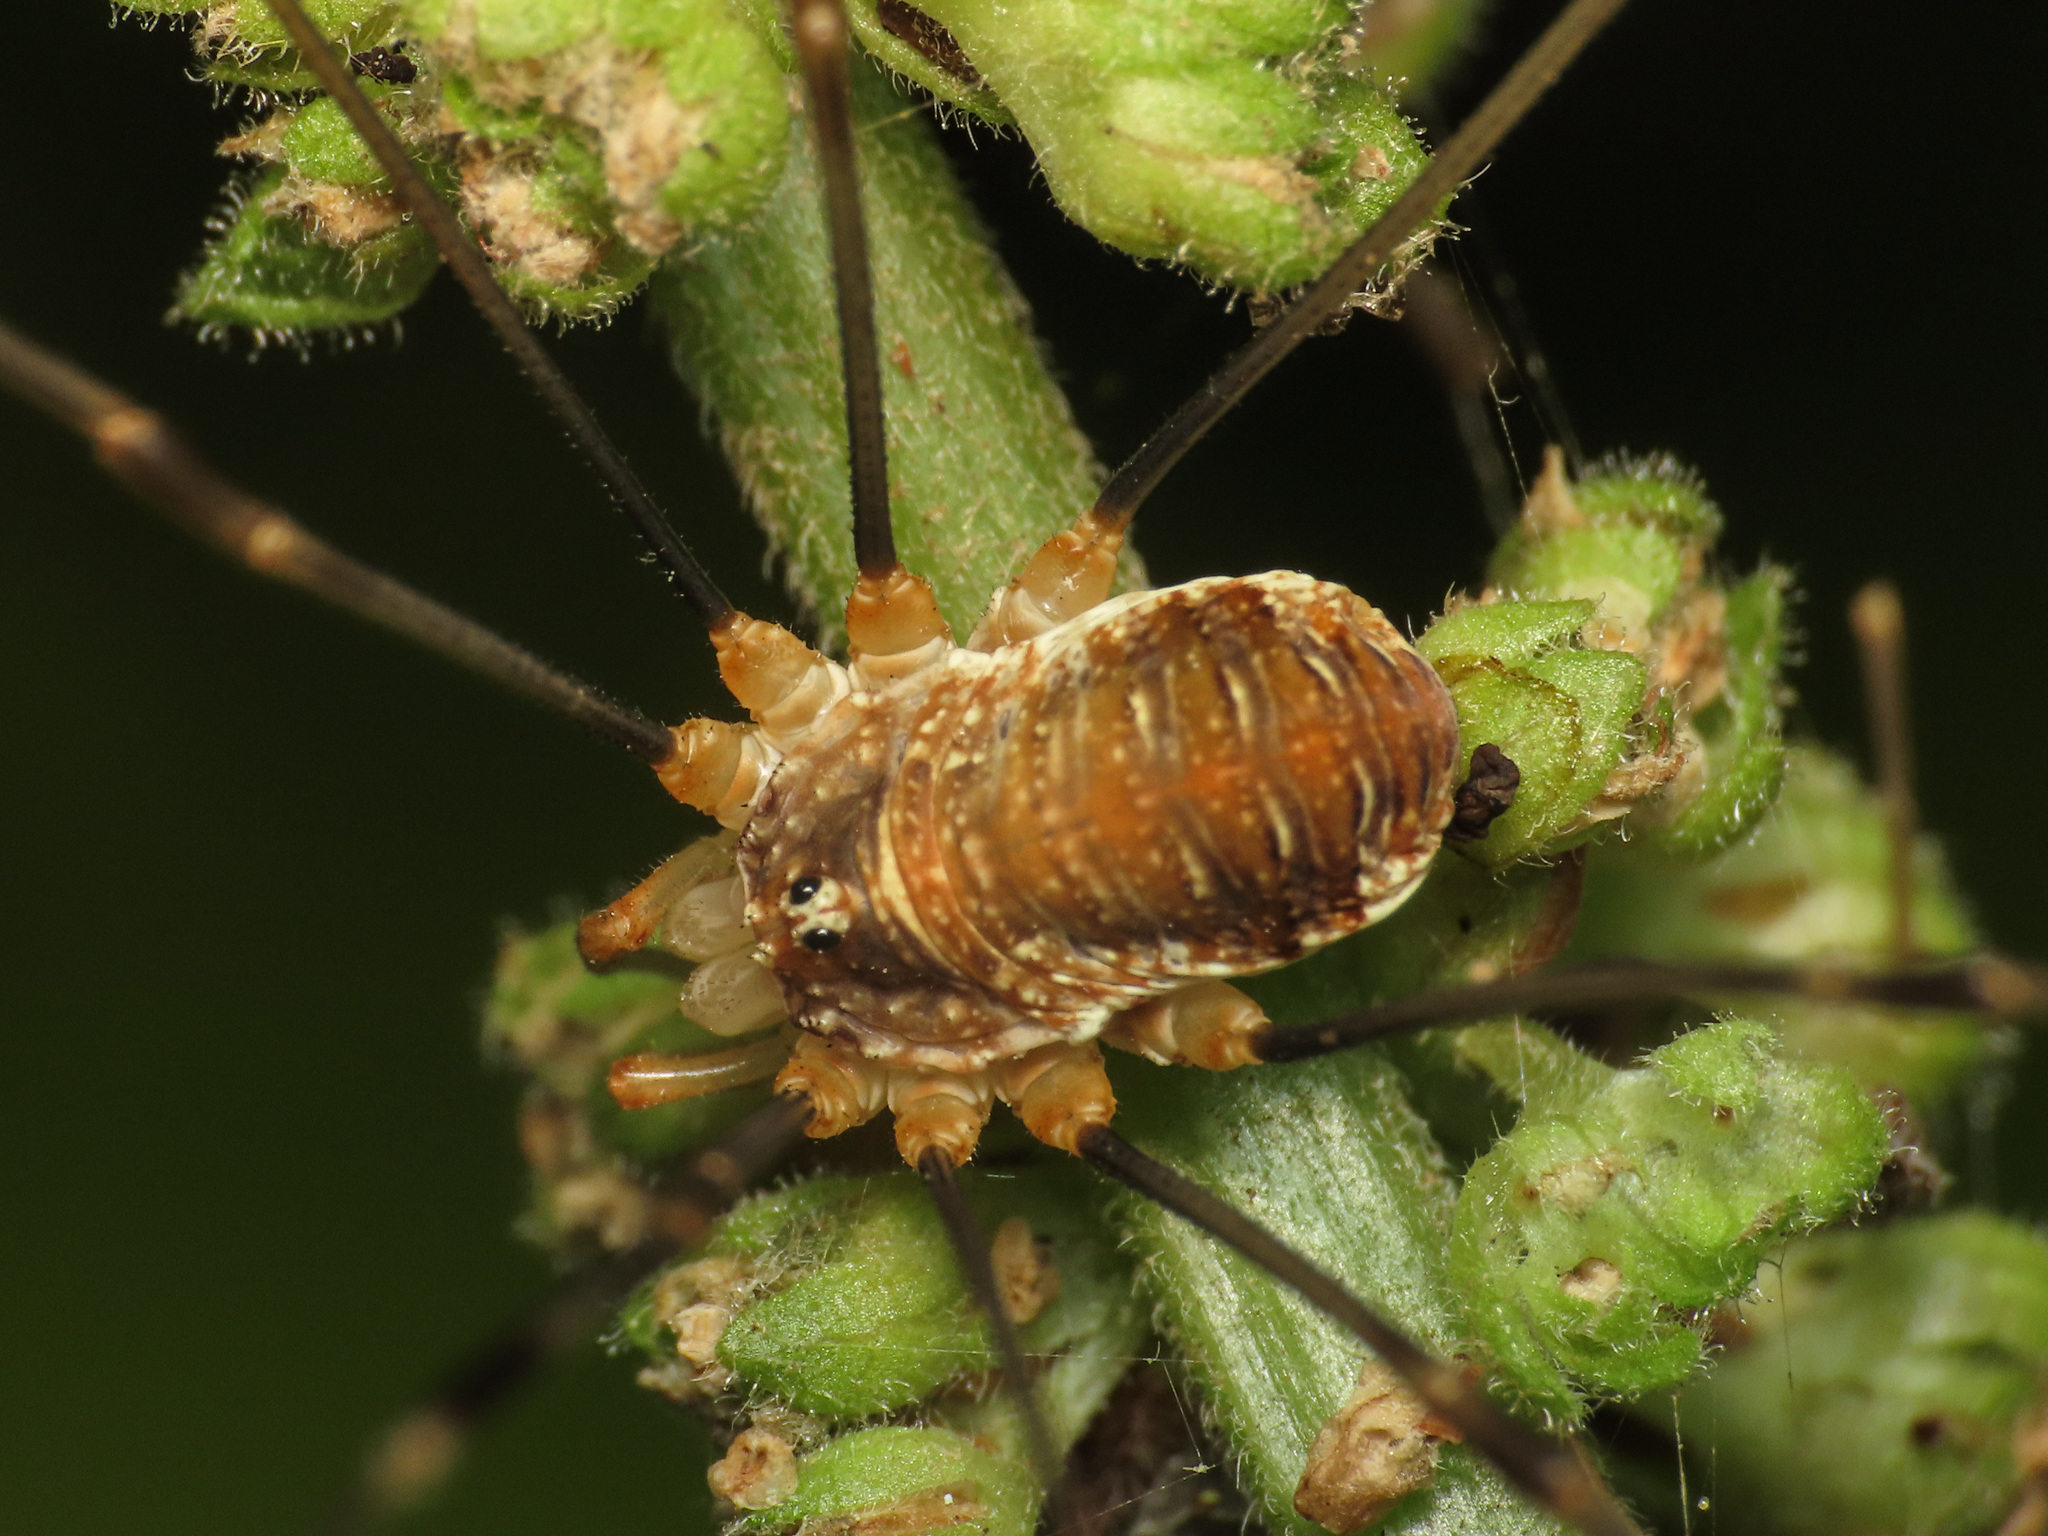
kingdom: Animalia
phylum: Arthropoda
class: Arachnida
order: Opiliones
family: Phalangiidae
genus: Opilio
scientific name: Opilio canestrinii
